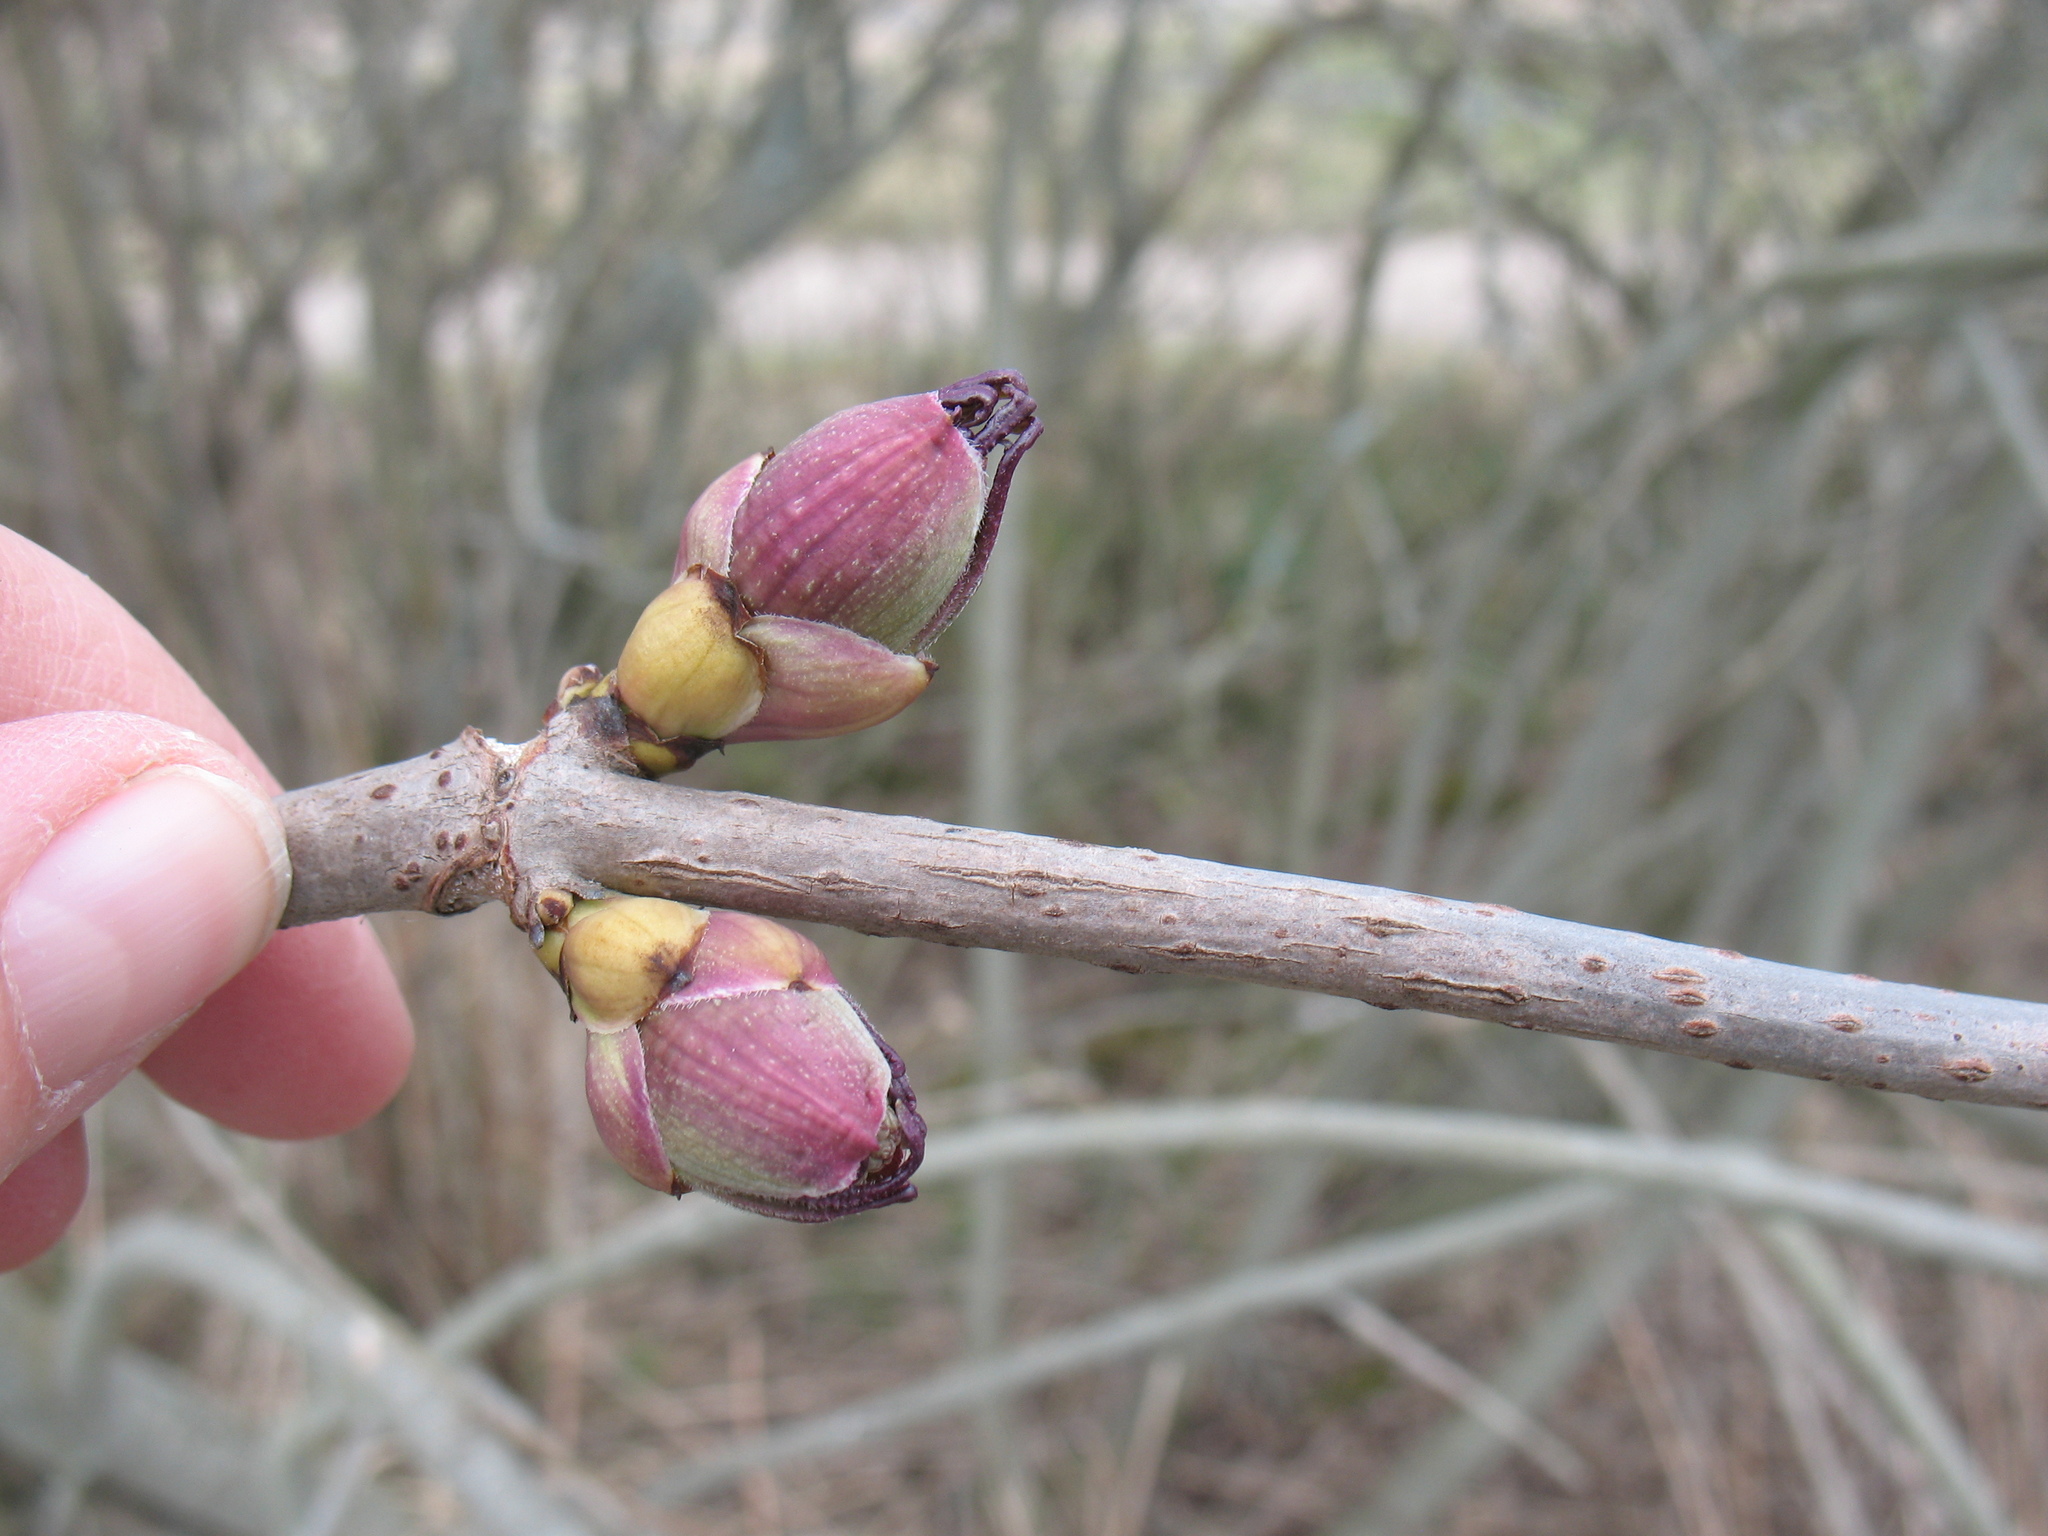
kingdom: Plantae
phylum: Tracheophyta
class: Magnoliopsida
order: Dipsacales
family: Viburnaceae
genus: Sambucus
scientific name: Sambucus racemosa
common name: Red-berried elder
